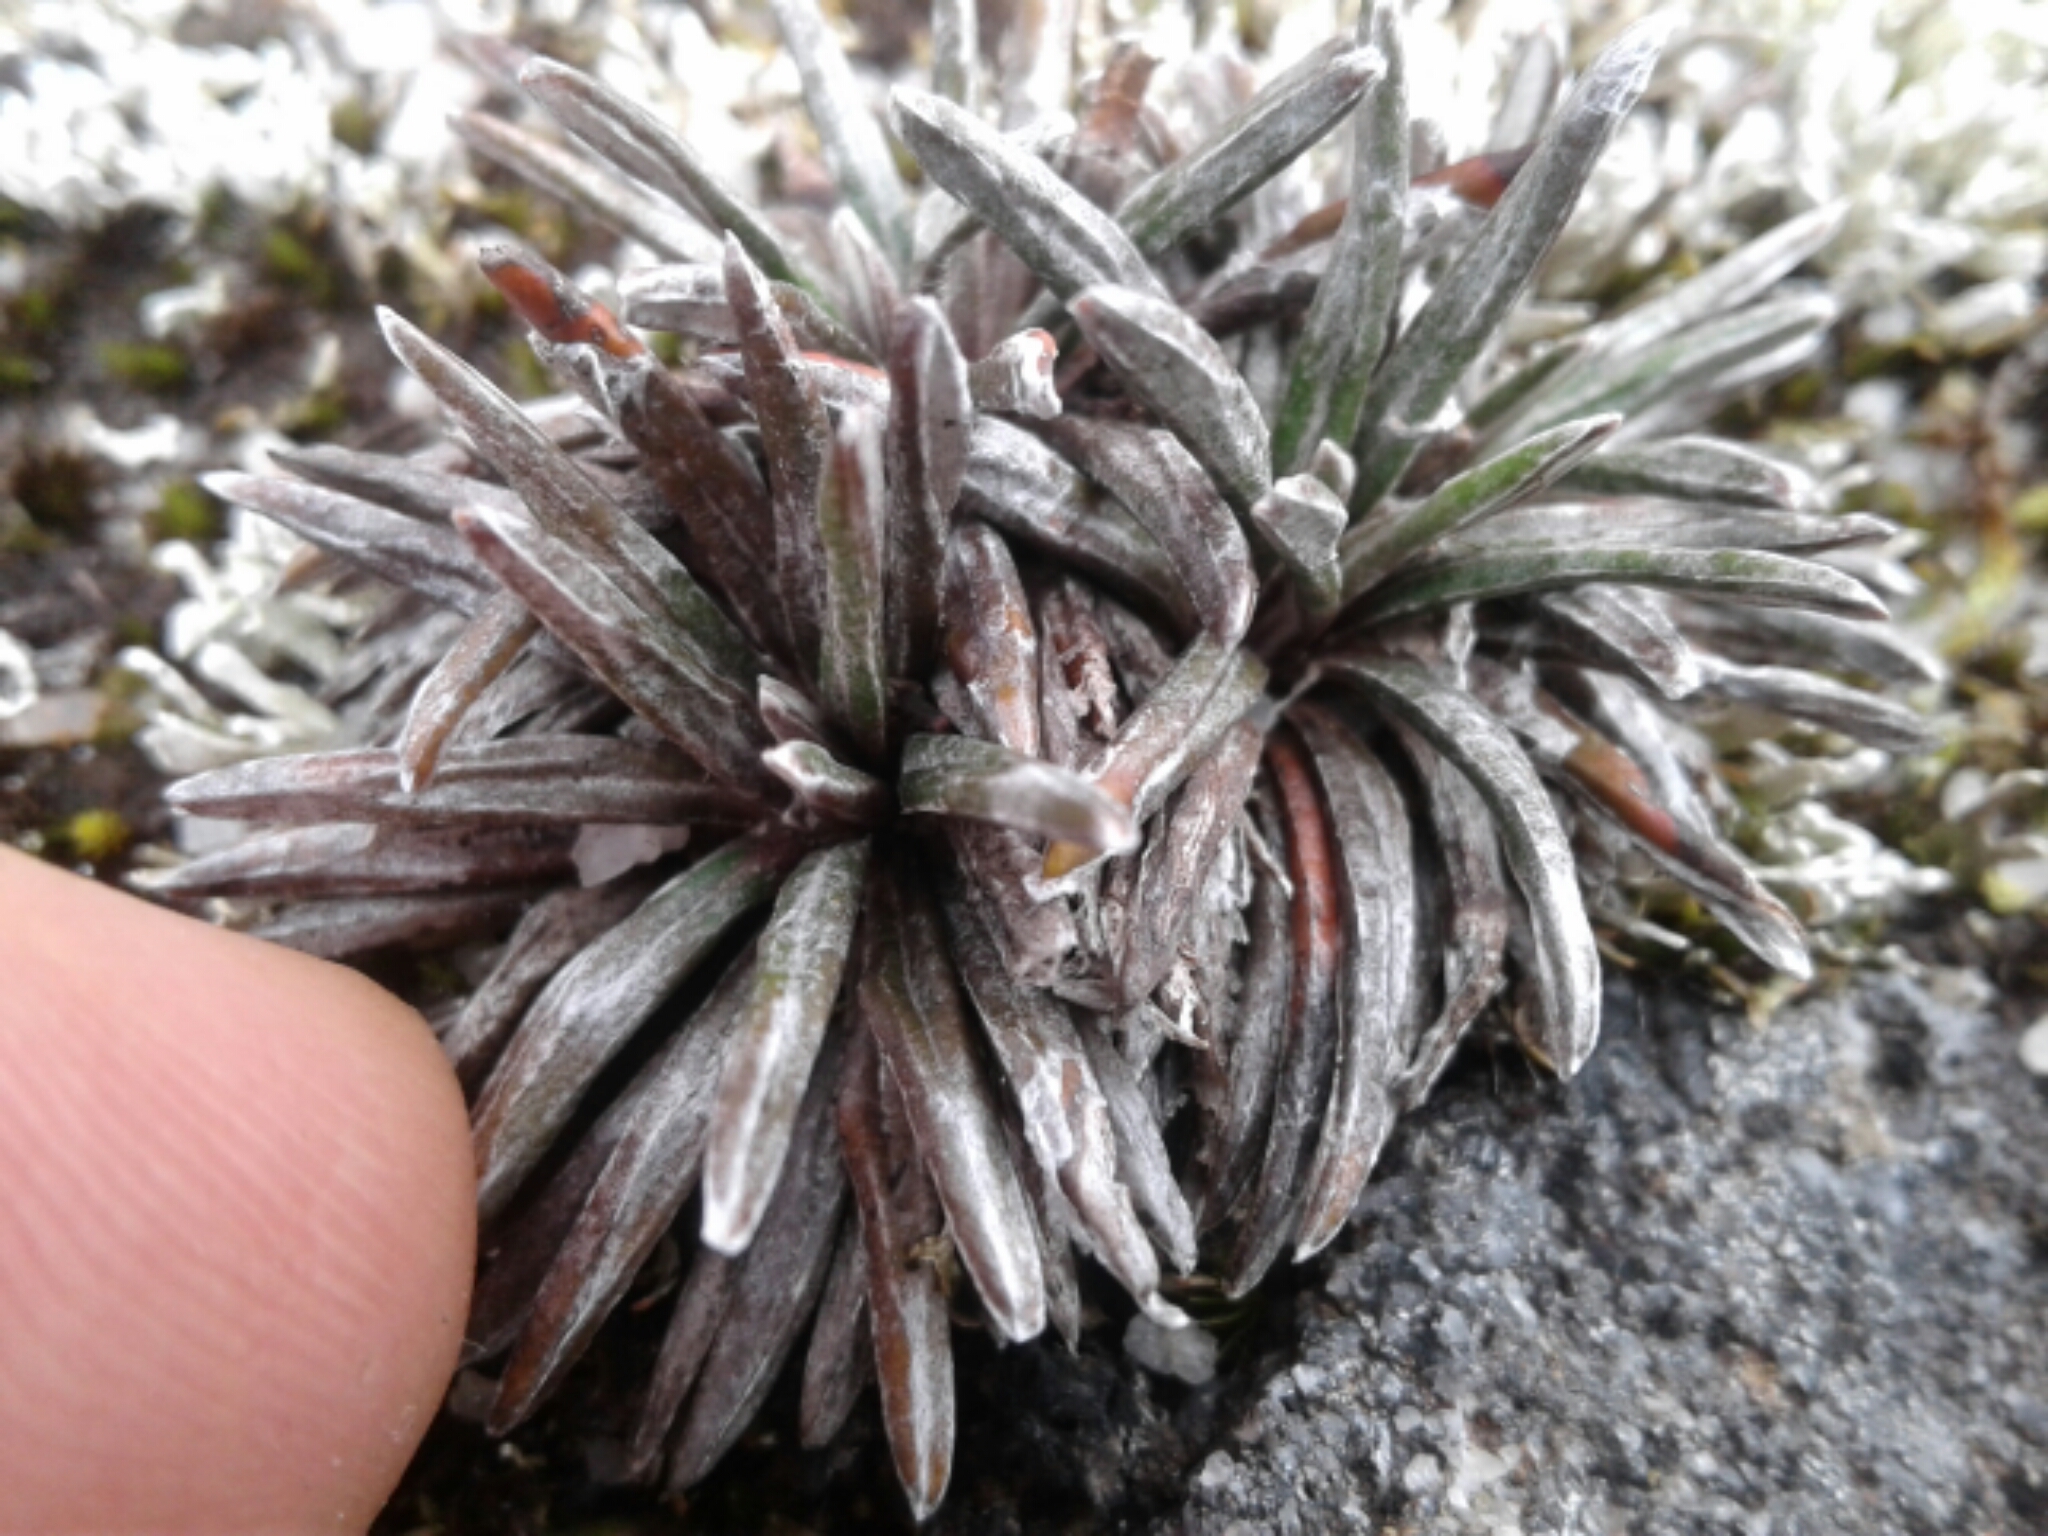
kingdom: Plantae
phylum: Tracheophyta
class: Magnoliopsida
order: Asterales
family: Asteraceae
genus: Celmisia
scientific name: Celmisia similis
